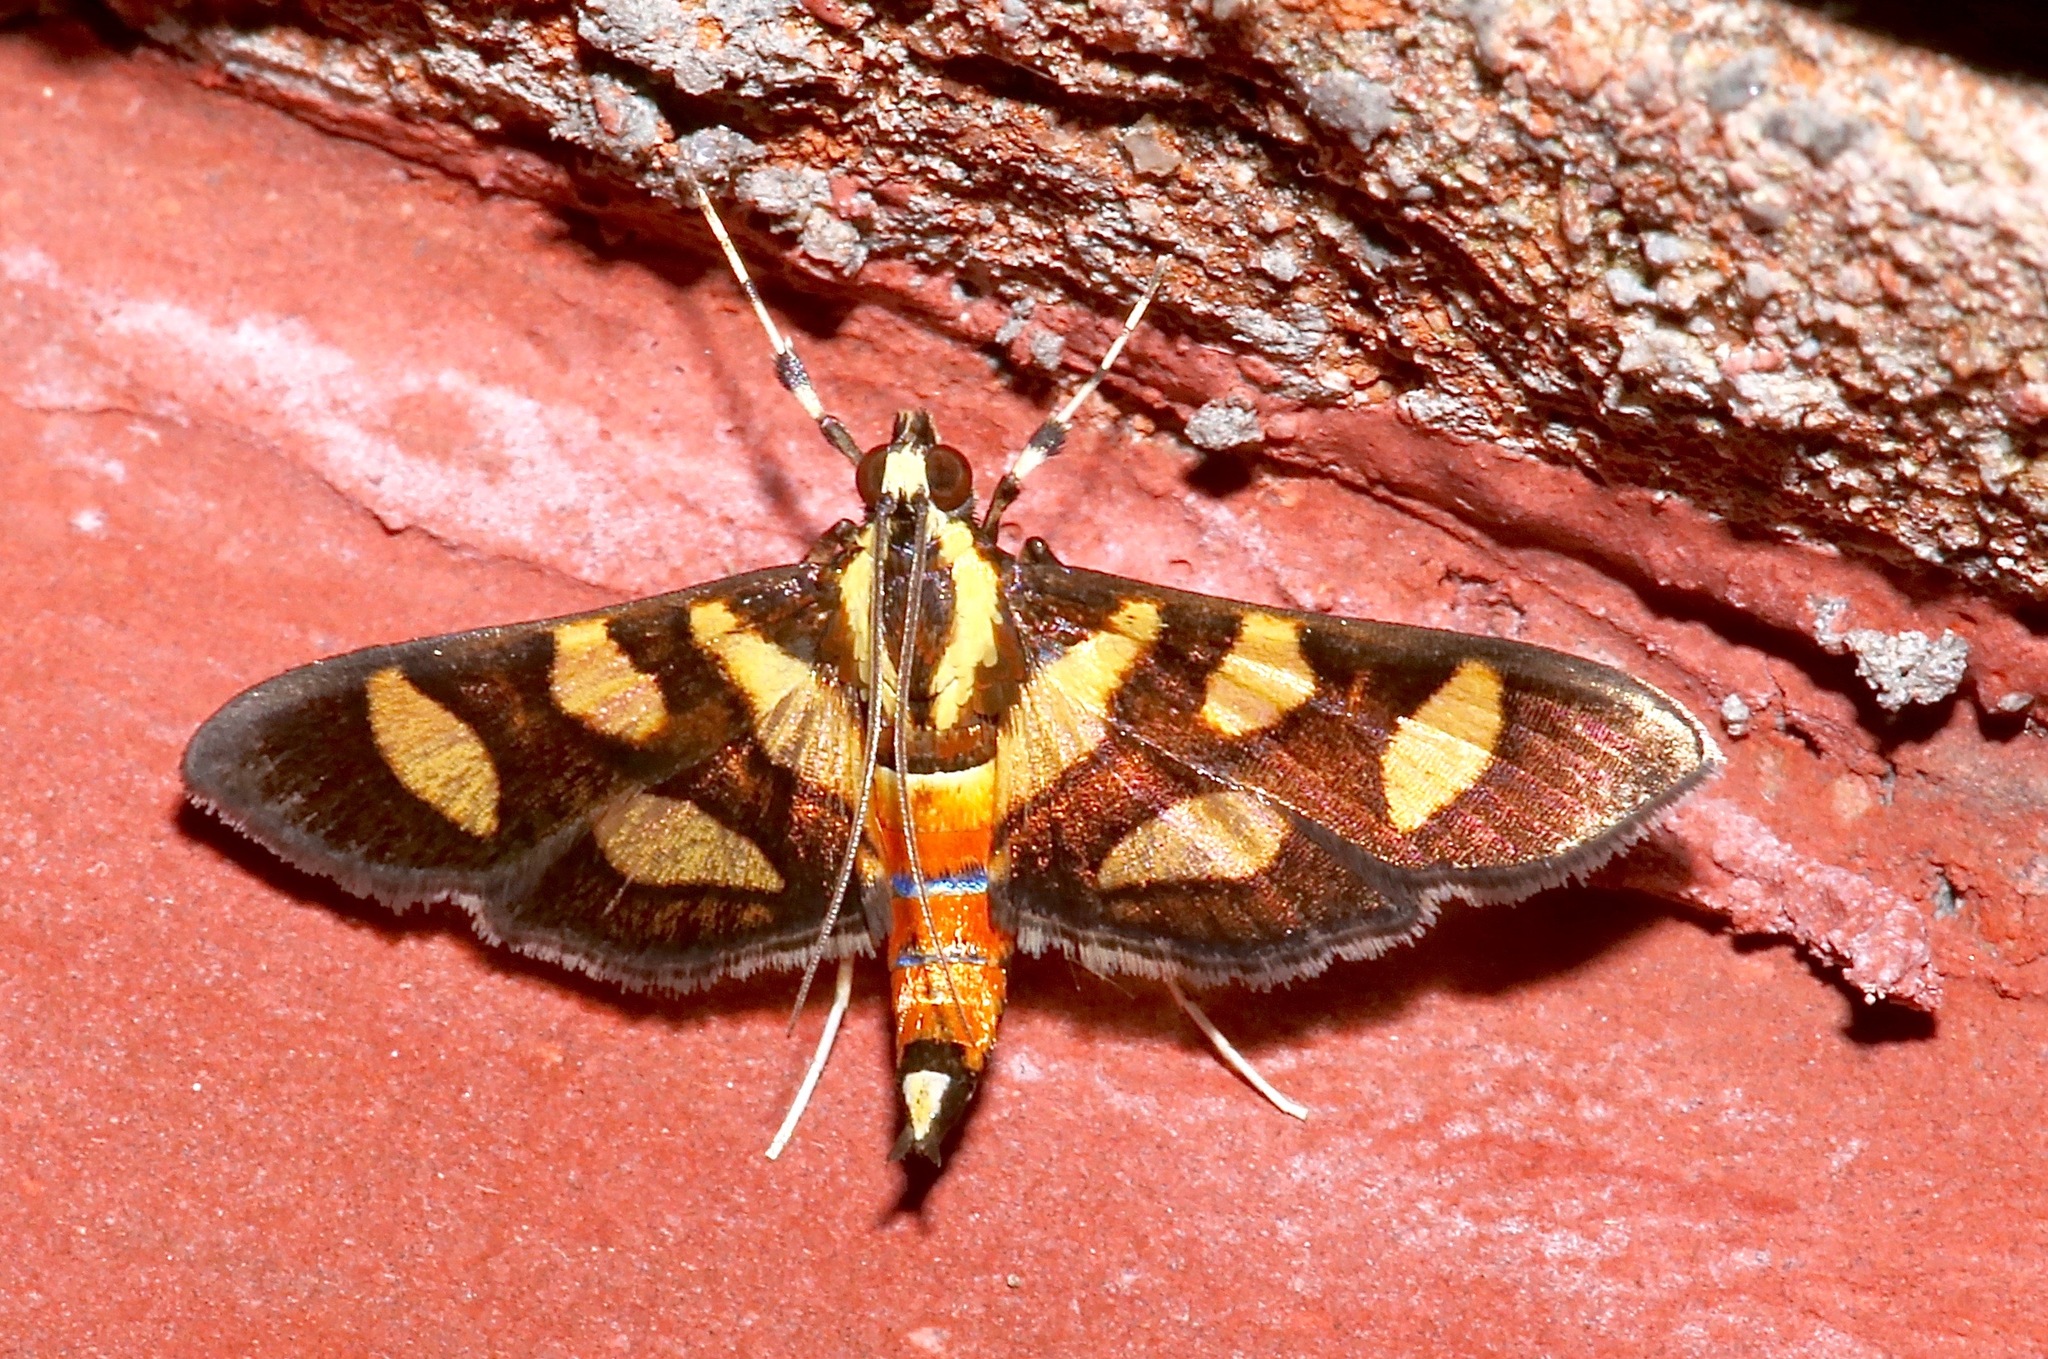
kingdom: Animalia
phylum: Arthropoda
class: Insecta
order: Lepidoptera
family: Crambidae
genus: Syngamia
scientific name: Syngamia florella
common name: Orange-spotted flower moth
